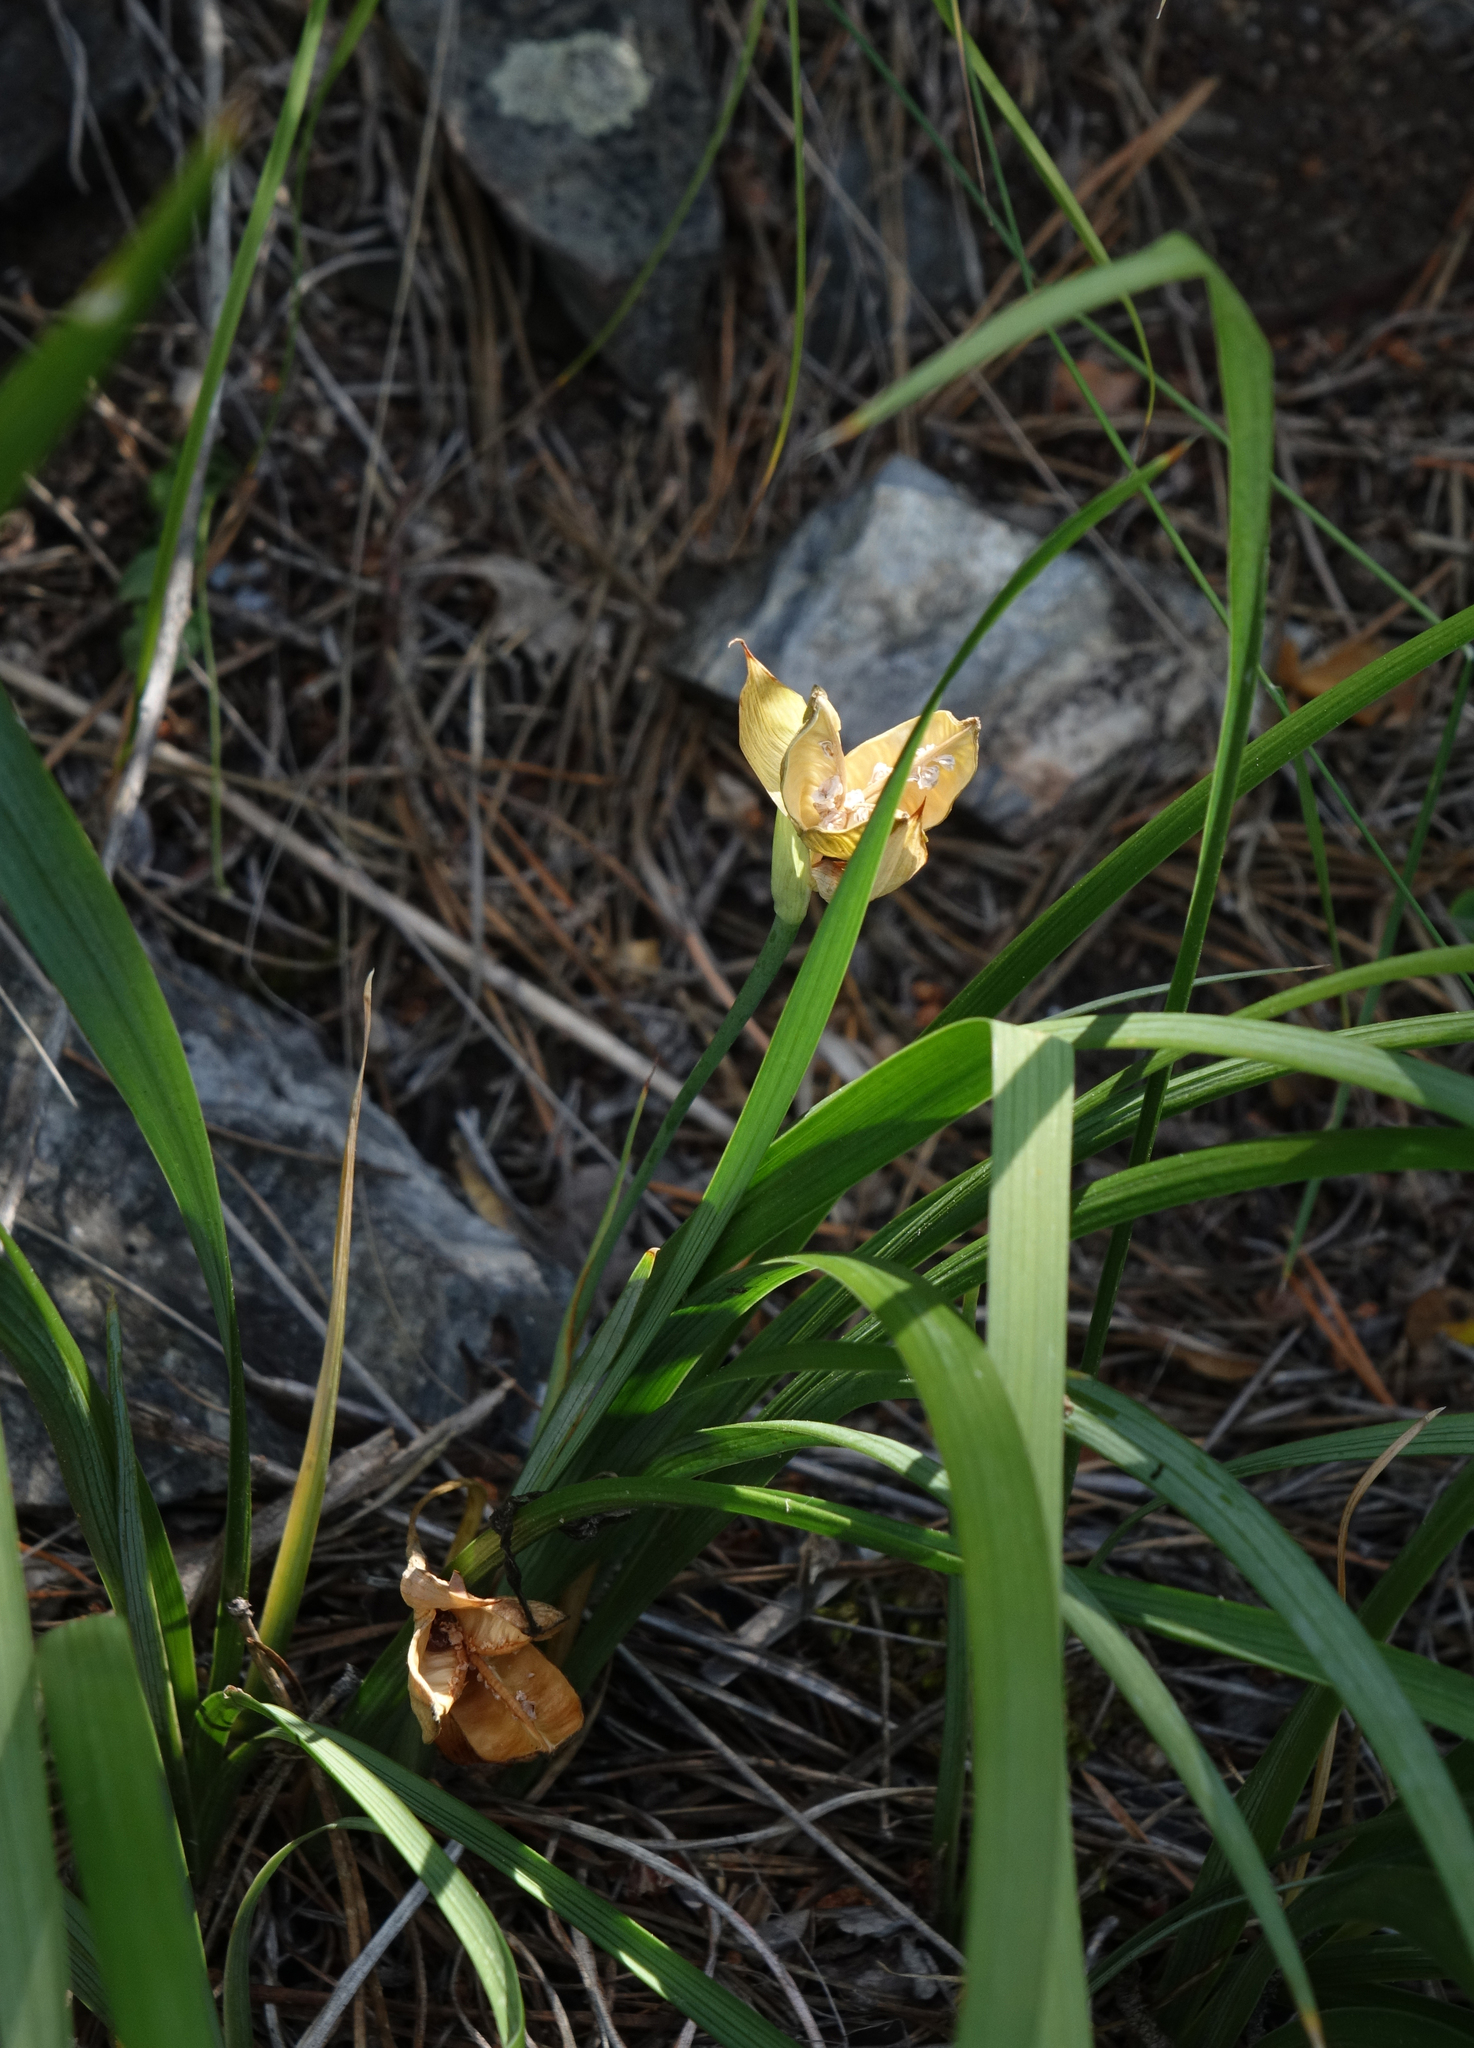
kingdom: Plantae
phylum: Tracheophyta
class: Liliopsida
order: Asparagales
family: Iridaceae
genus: Iris
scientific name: Iris ruthenica
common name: Purple-bract iris
